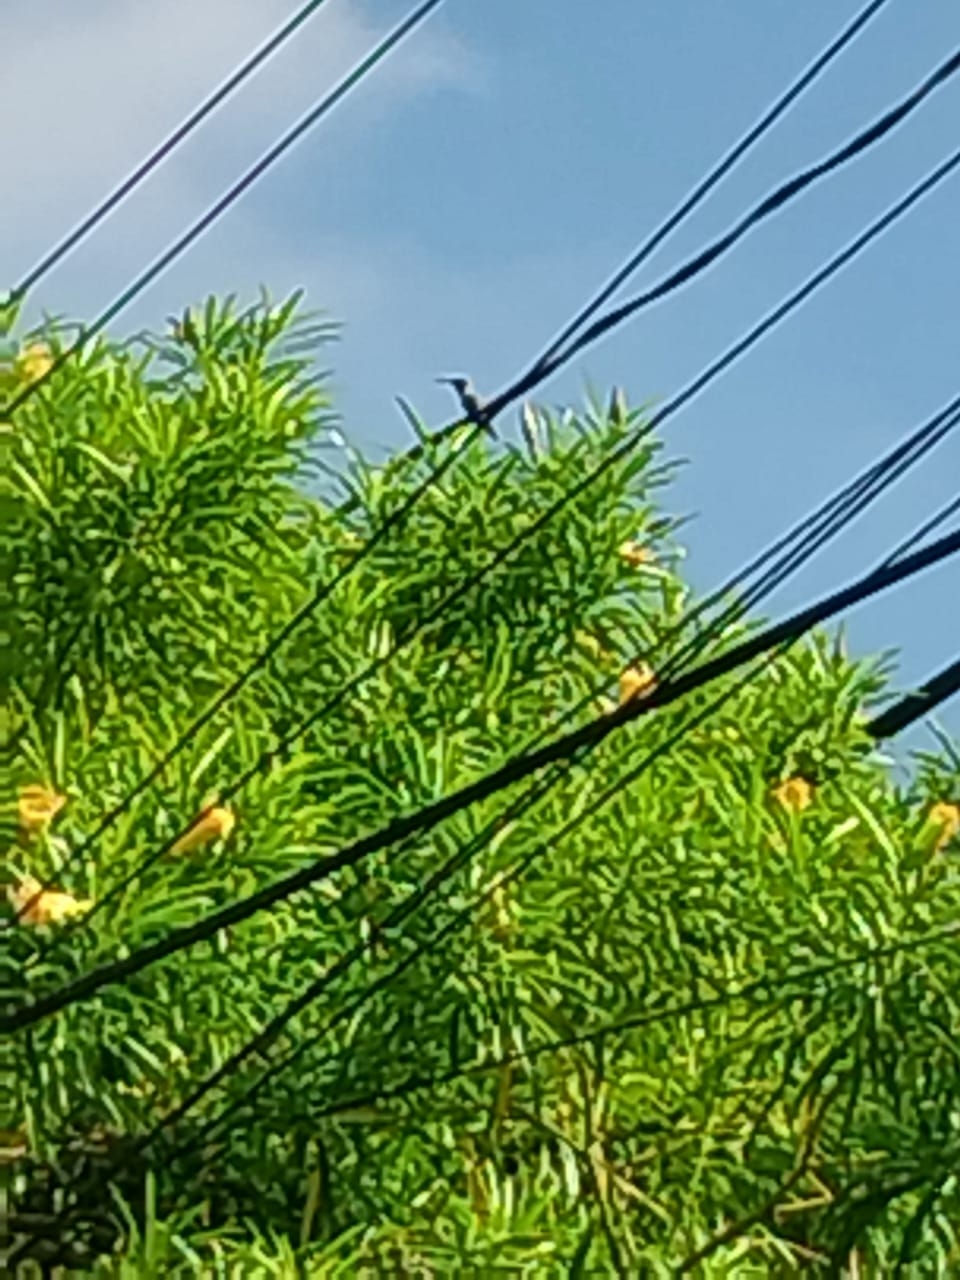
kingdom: Animalia
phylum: Chordata
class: Aves
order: Apodiformes
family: Trochilidae
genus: Archilochus
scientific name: Archilochus colubris
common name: Ruby-throated hummingbird
